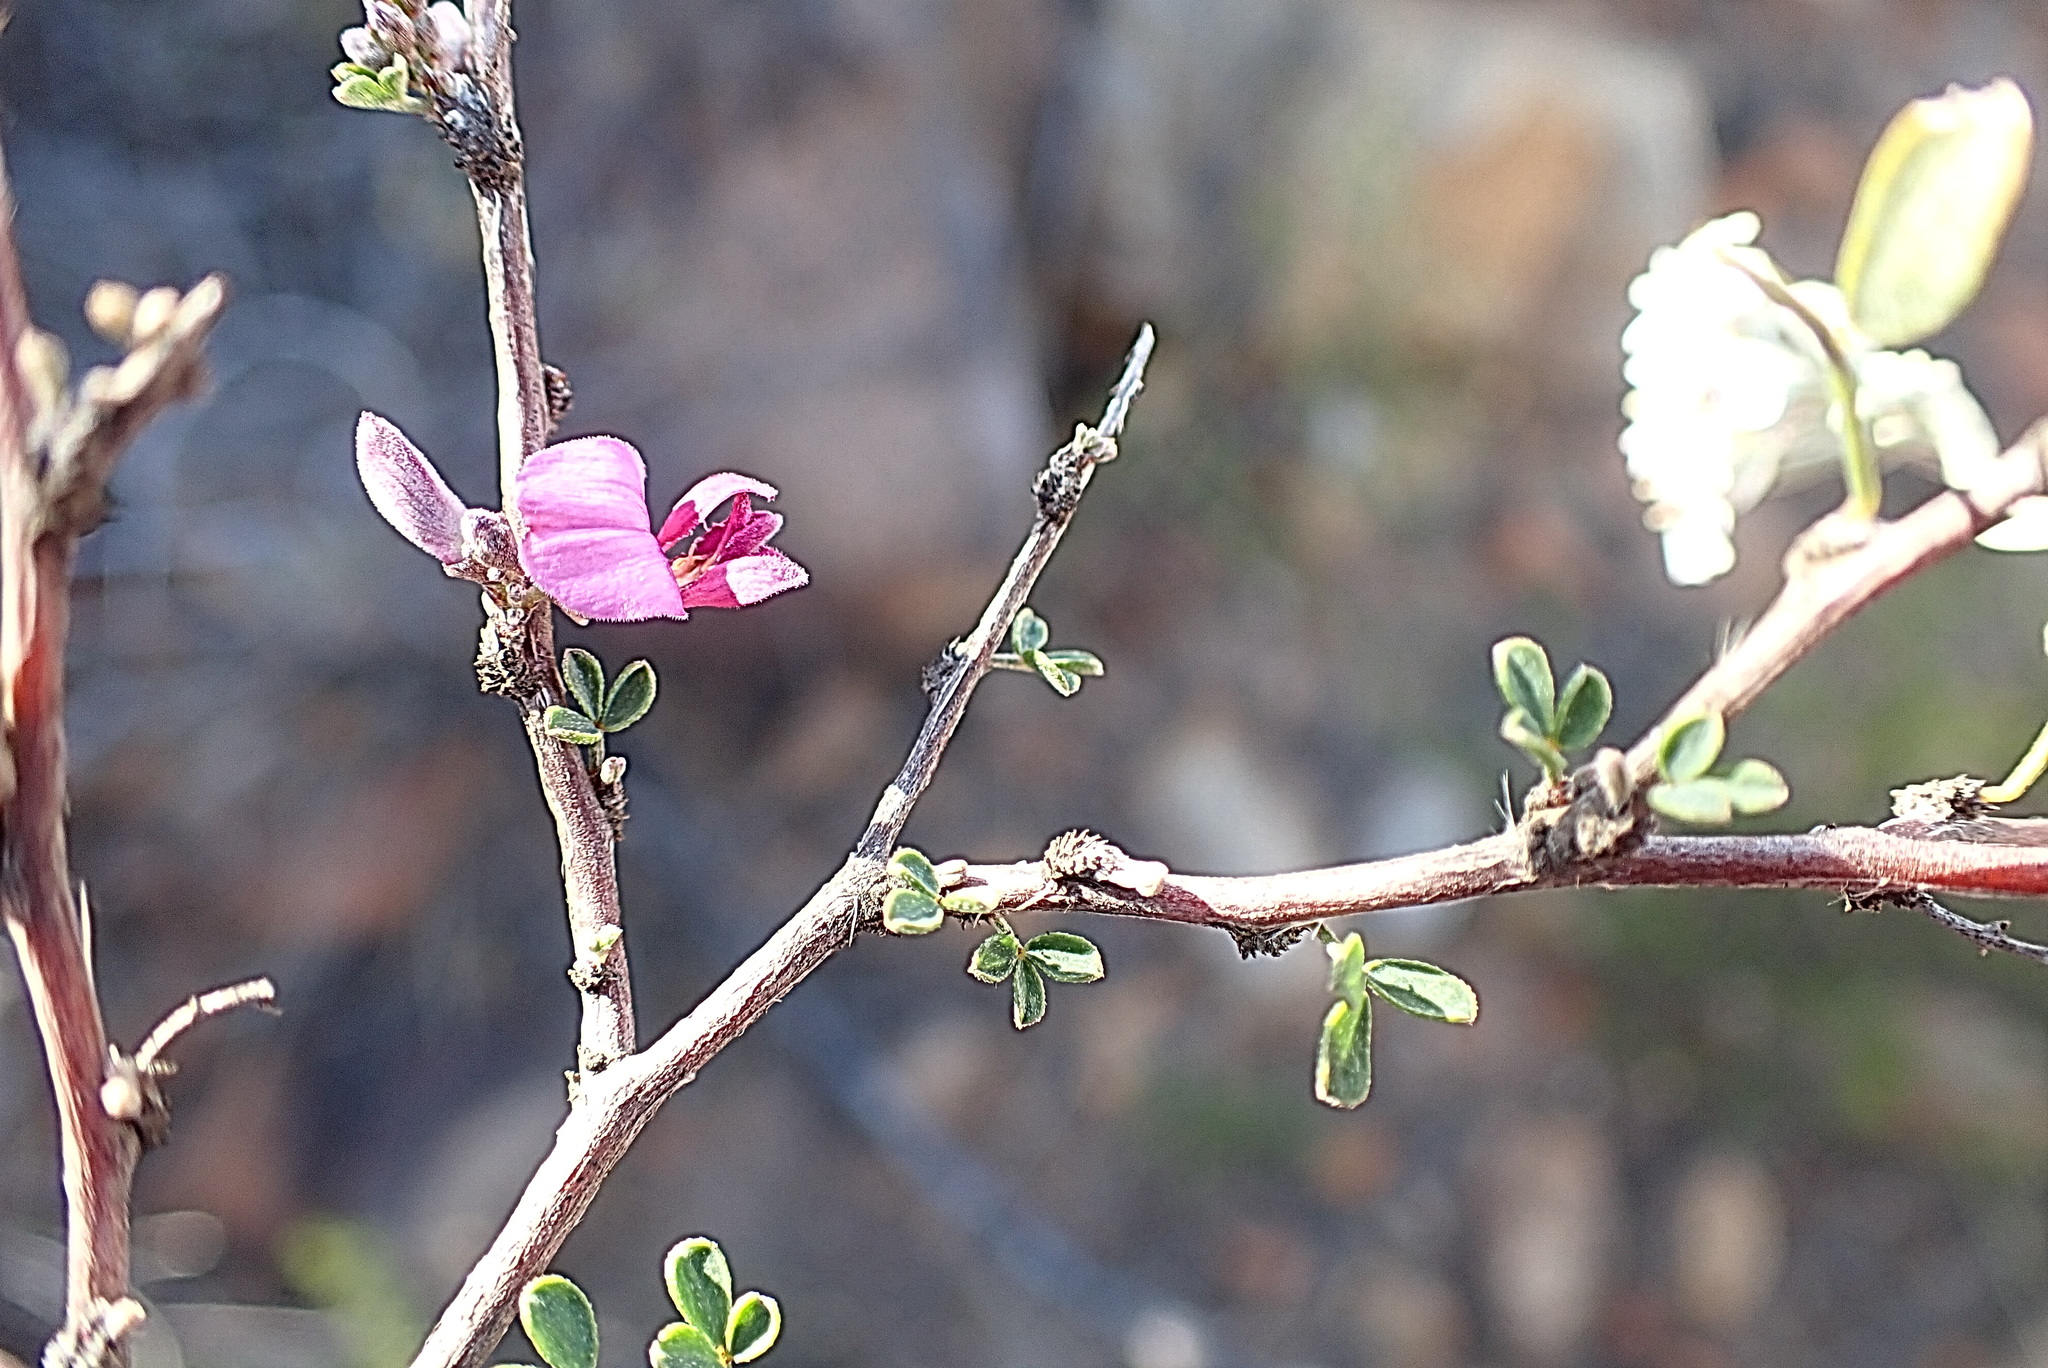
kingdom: Plantae
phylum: Tracheophyta
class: Magnoliopsida
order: Fabales
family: Fabaceae
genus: Indigofera
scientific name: Indigofera nigromontana
